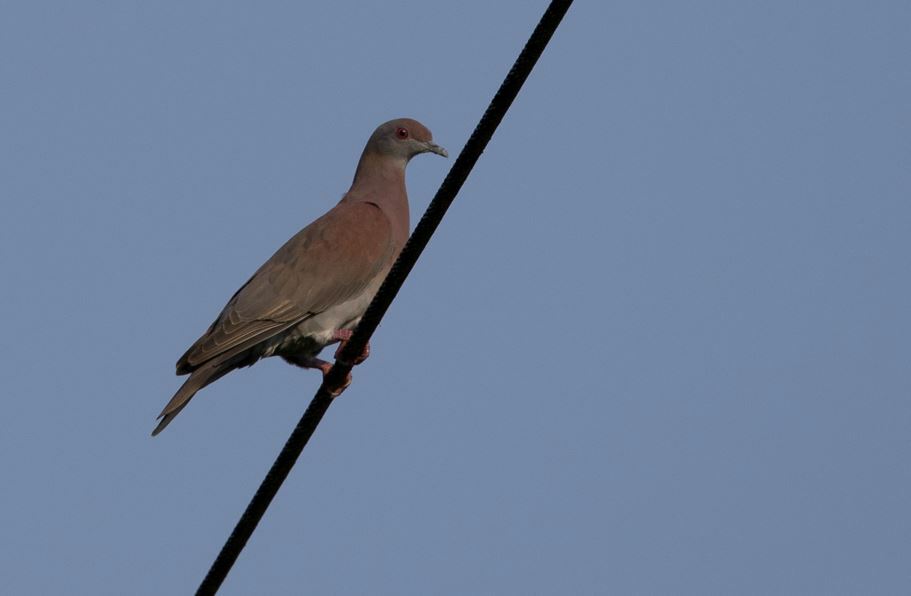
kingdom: Animalia
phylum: Chordata
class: Aves
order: Columbiformes
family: Columbidae
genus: Patagioenas
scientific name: Patagioenas cayennensis
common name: Pale-vented pigeon
